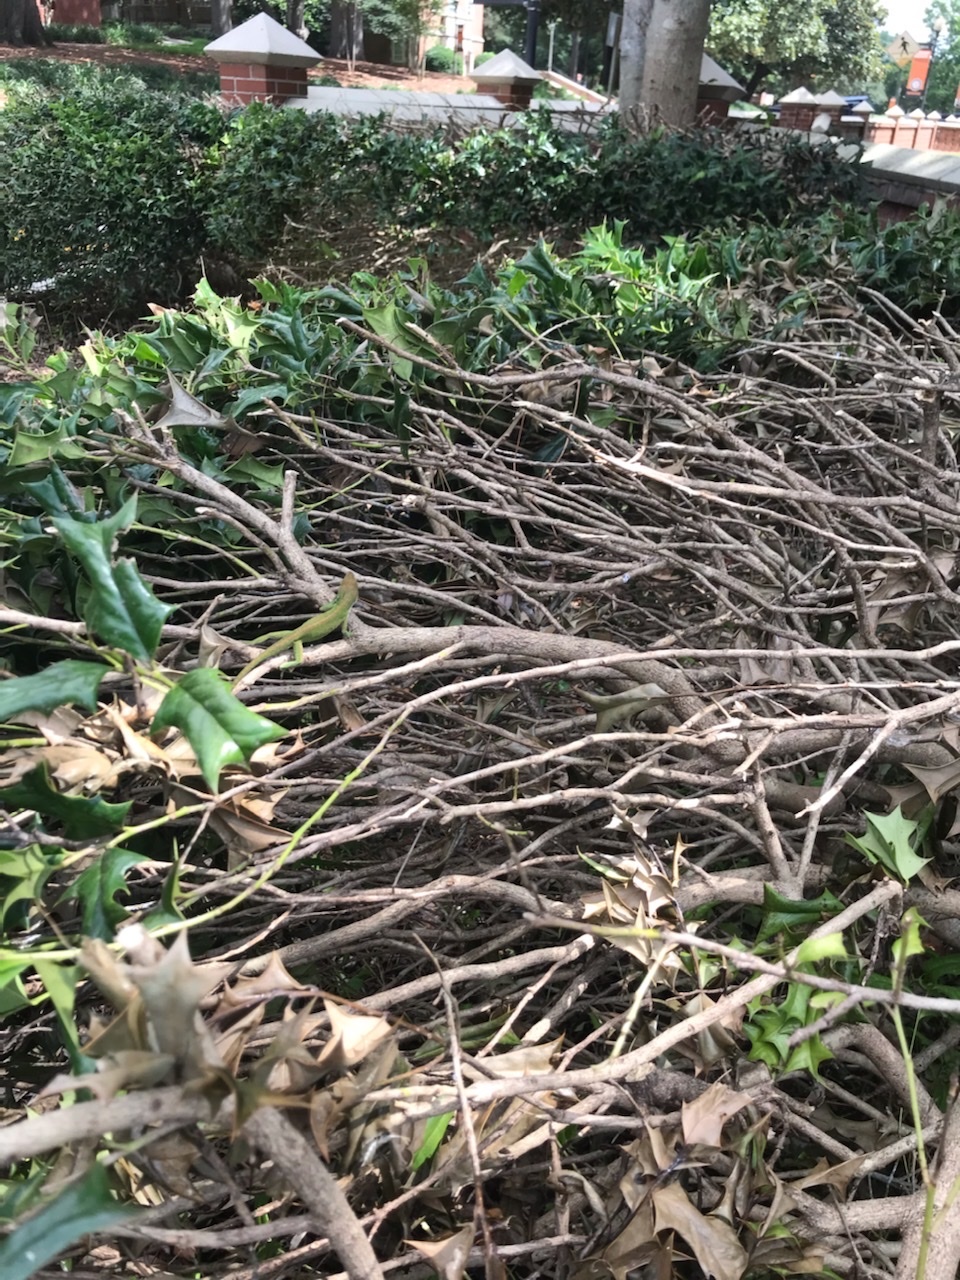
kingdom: Animalia
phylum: Chordata
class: Squamata
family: Dactyloidae
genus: Anolis
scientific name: Anolis carolinensis
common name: Green anole
